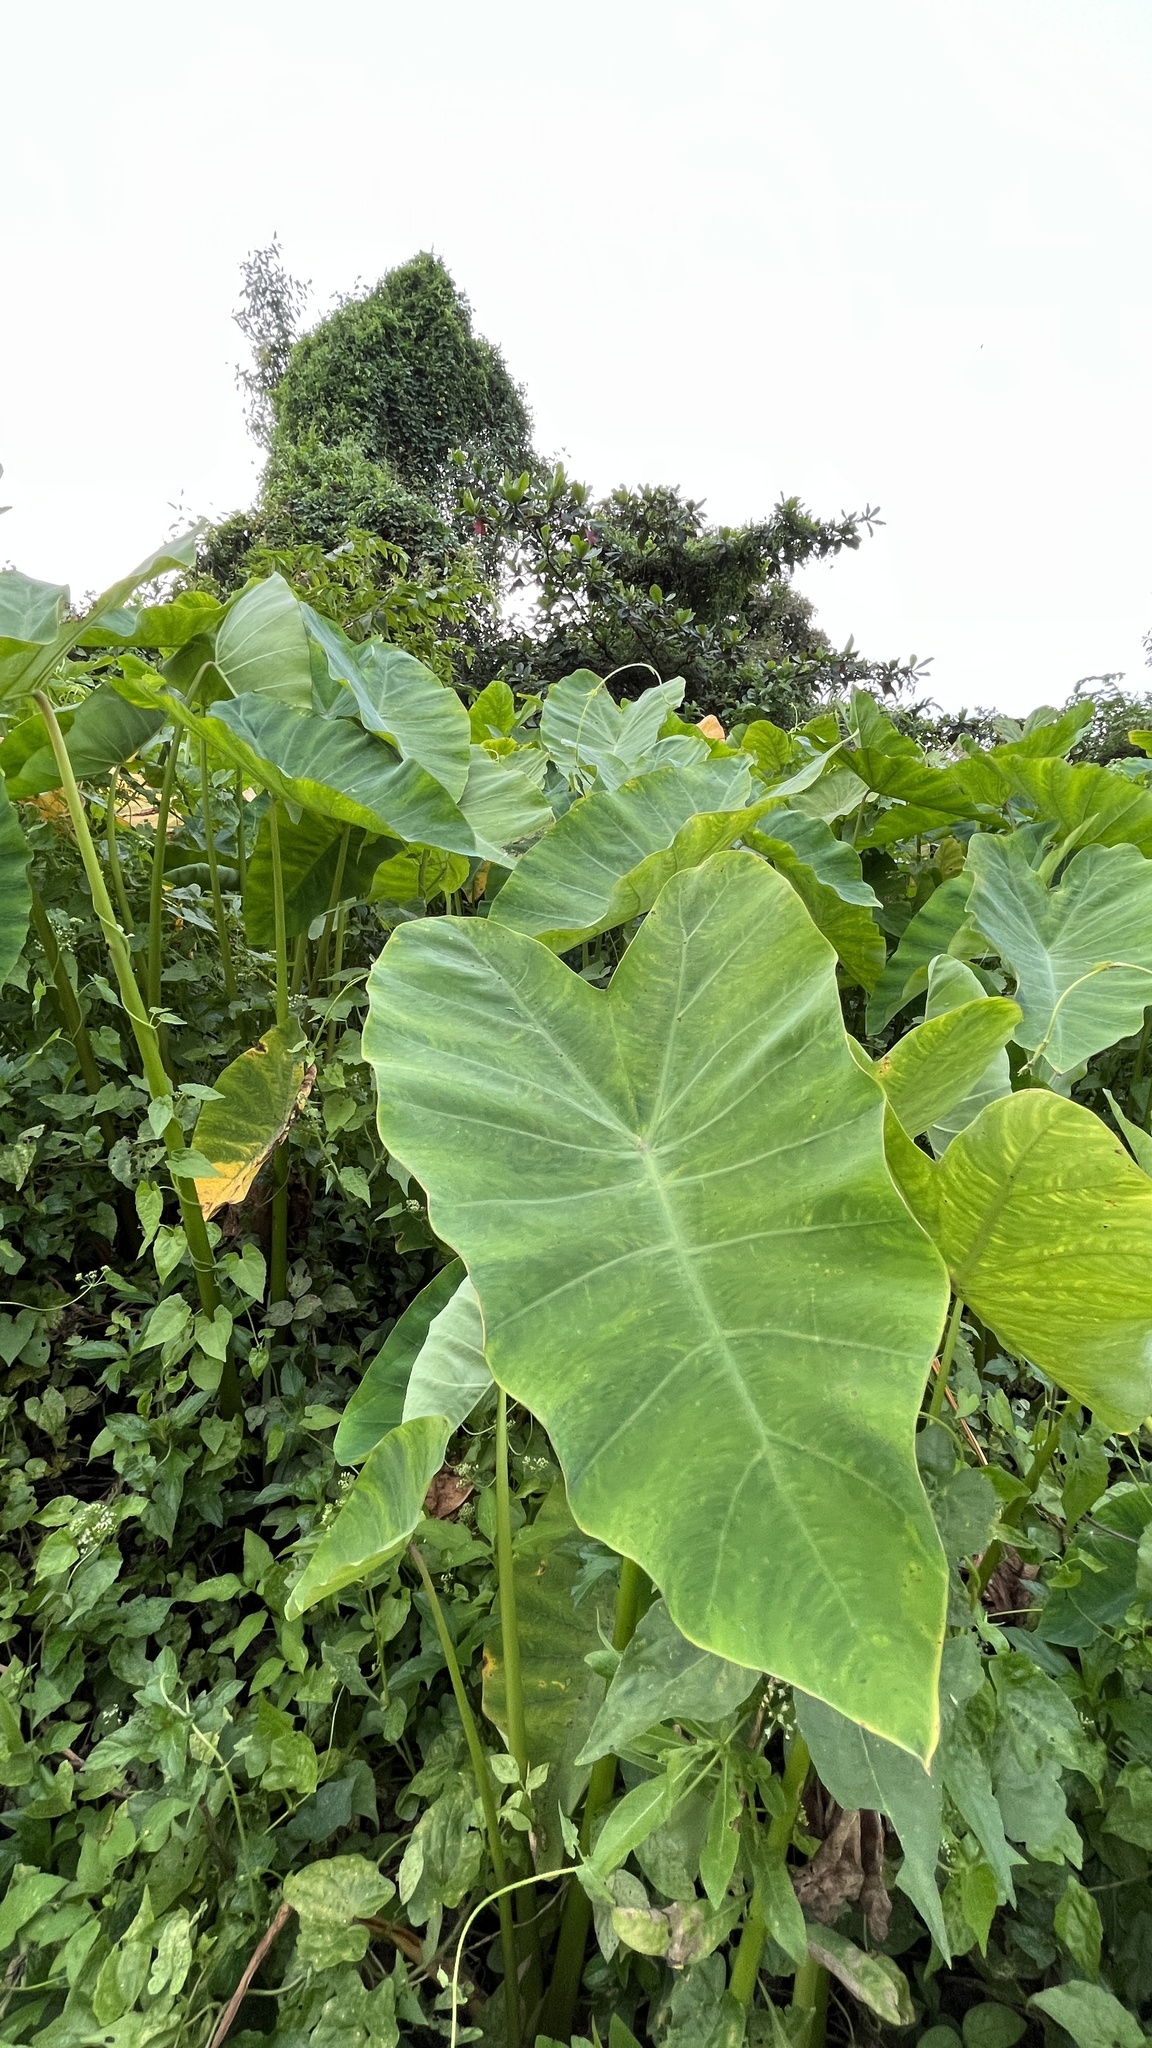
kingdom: Plantae
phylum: Tracheophyta
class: Liliopsida
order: Alismatales
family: Araceae
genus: Colocasia
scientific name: Colocasia esculenta
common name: Taro
